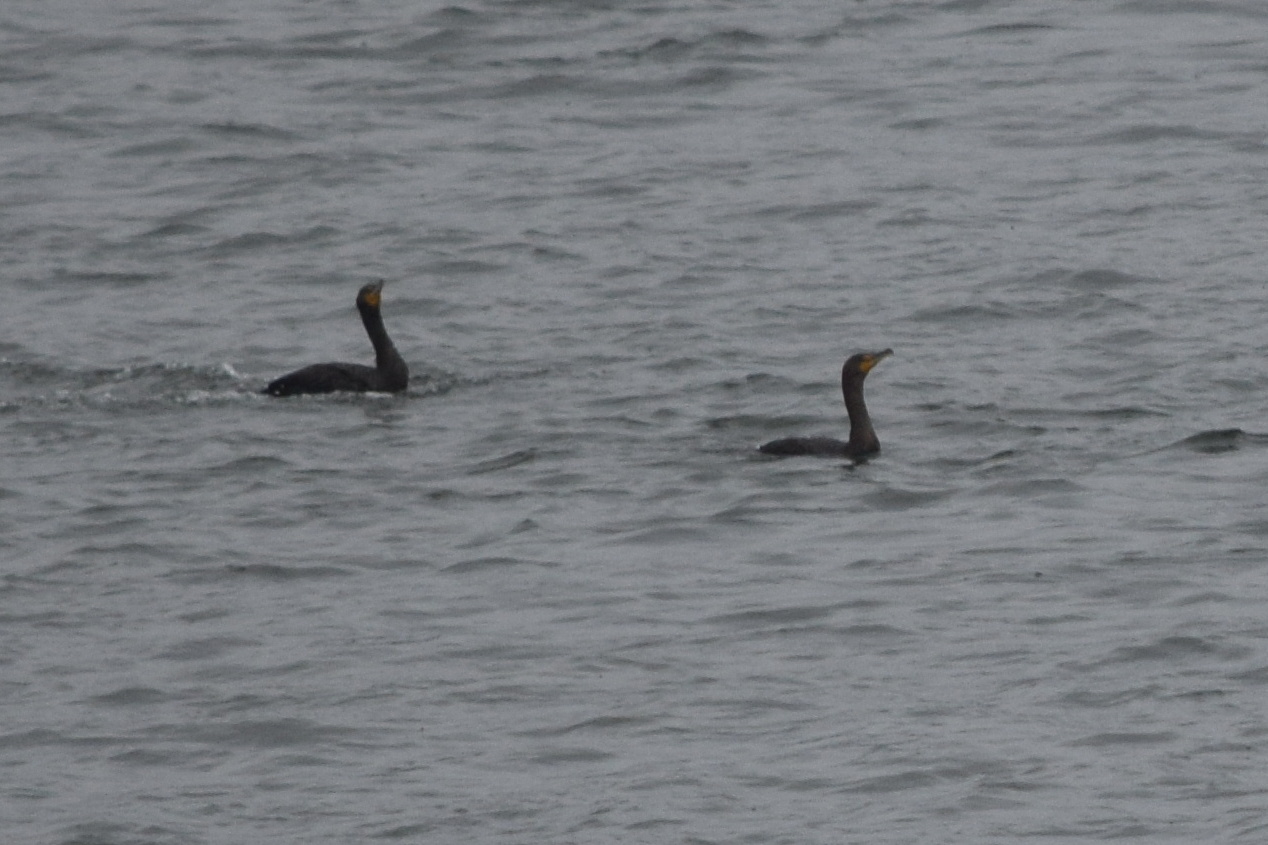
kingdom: Animalia
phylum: Chordata
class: Aves
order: Suliformes
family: Phalacrocoracidae
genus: Phalacrocorax
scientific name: Phalacrocorax auritus
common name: Double-crested cormorant
